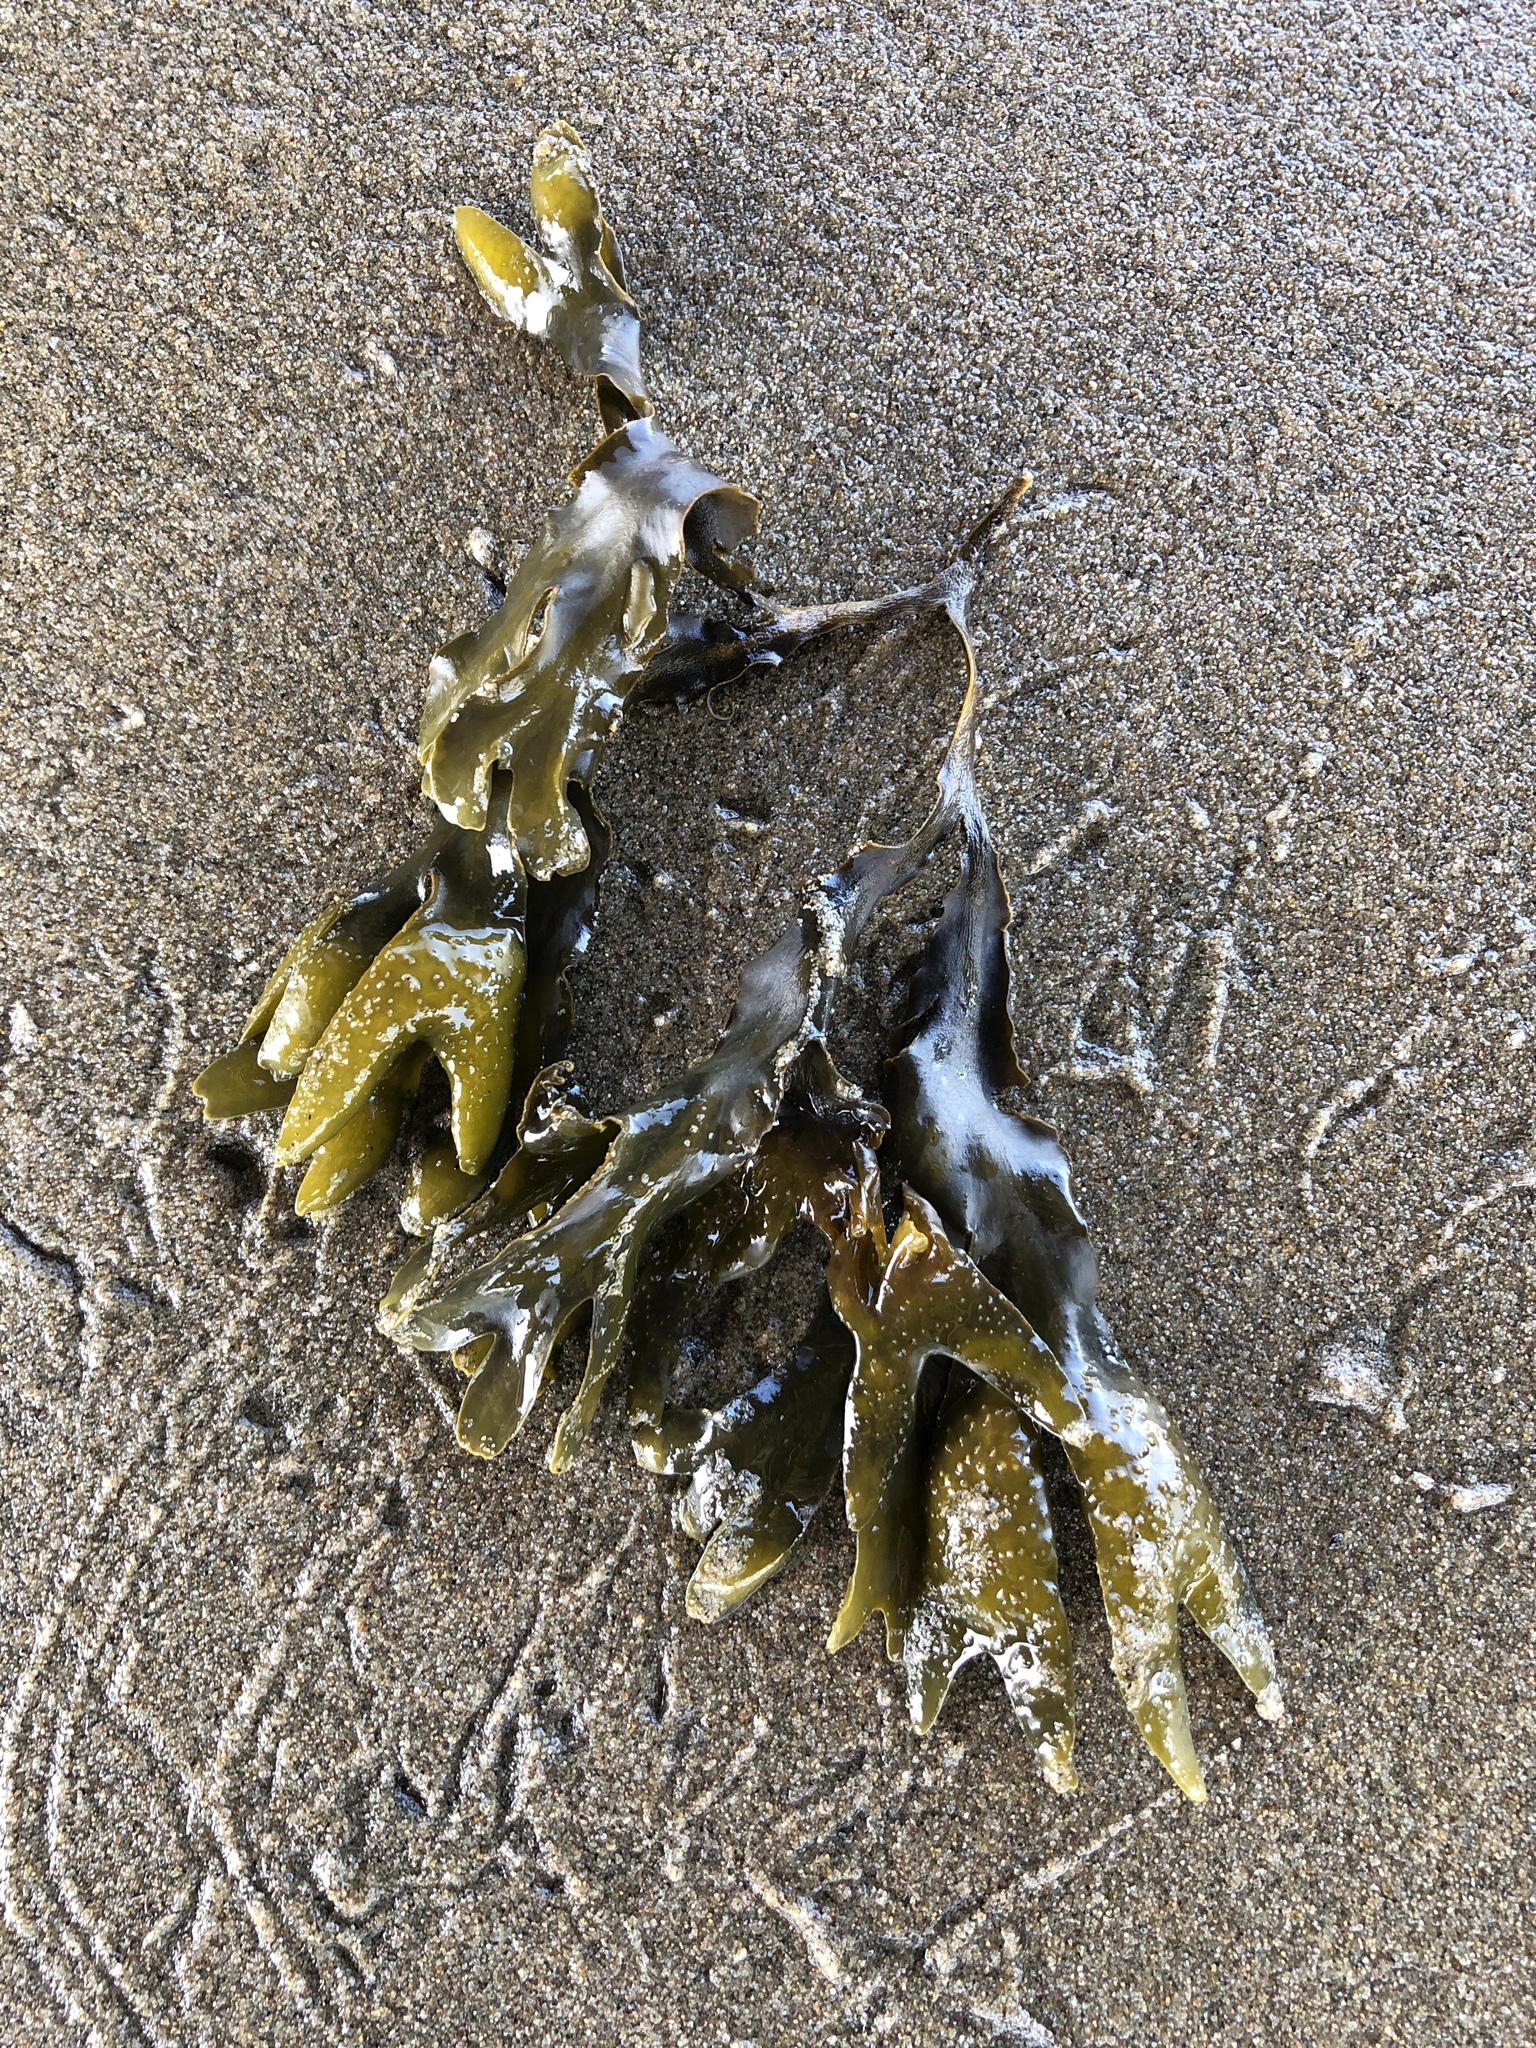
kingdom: Chromista
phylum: Ochrophyta
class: Phaeophyceae
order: Fucales
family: Fucaceae
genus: Fucus
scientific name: Fucus distichus
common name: Rockweed
